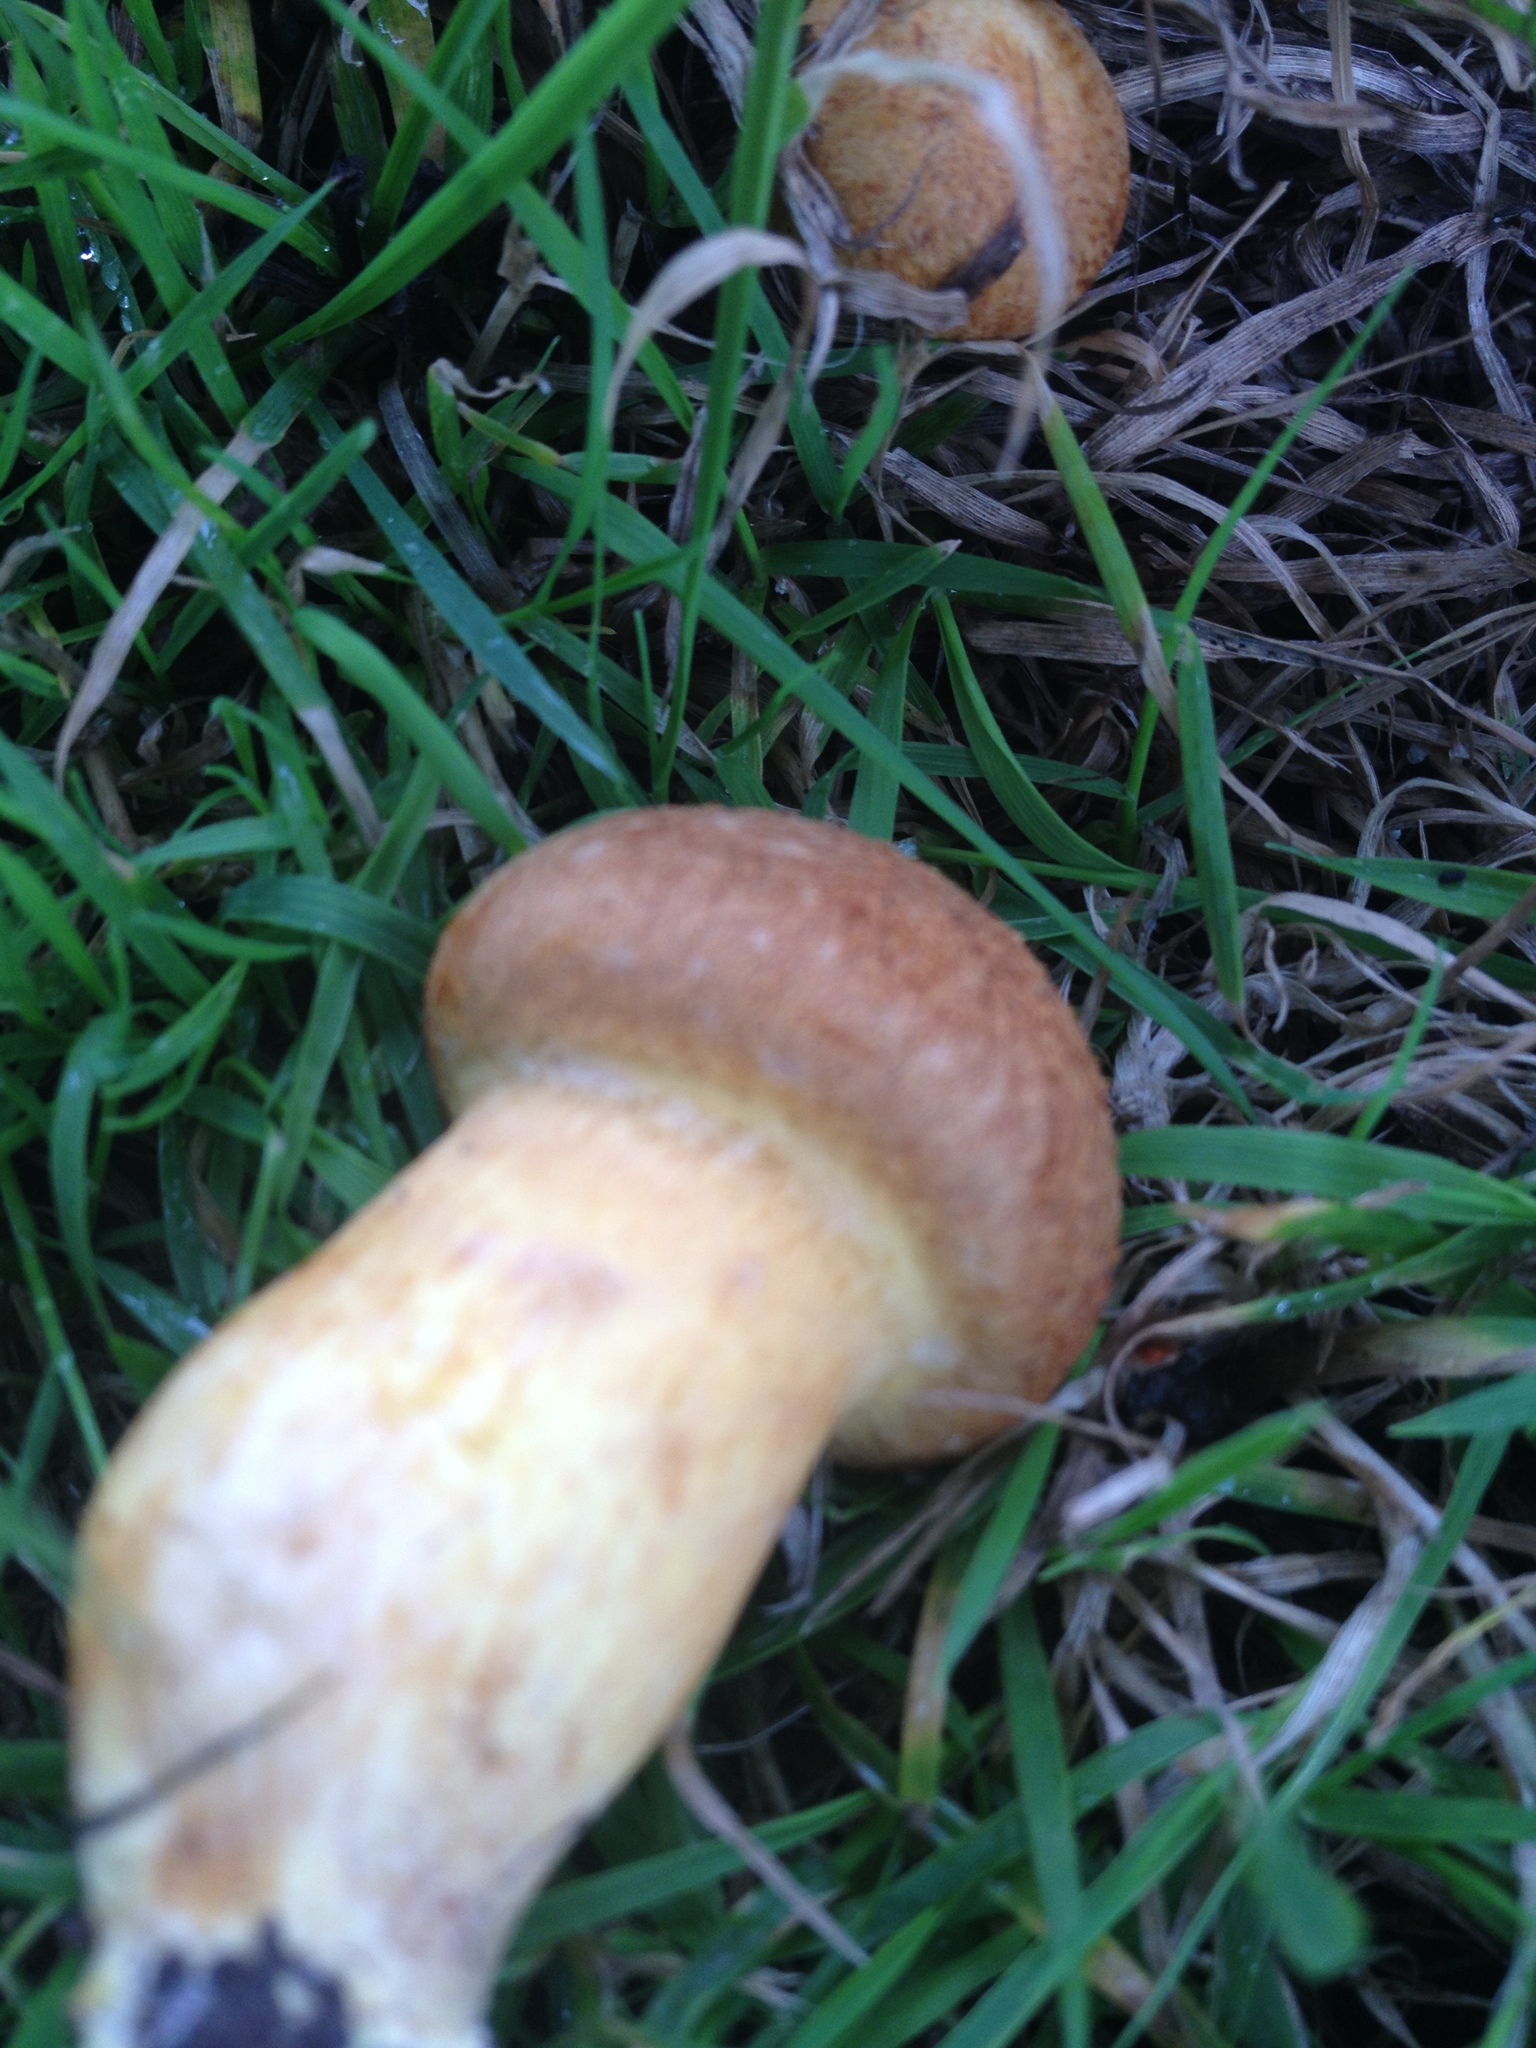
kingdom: Fungi
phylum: Basidiomycota
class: Agaricomycetes
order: Agaricales
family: Hymenogastraceae
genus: Gymnopilus
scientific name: Gymnopilus junonius
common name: Spectacular rustgill
